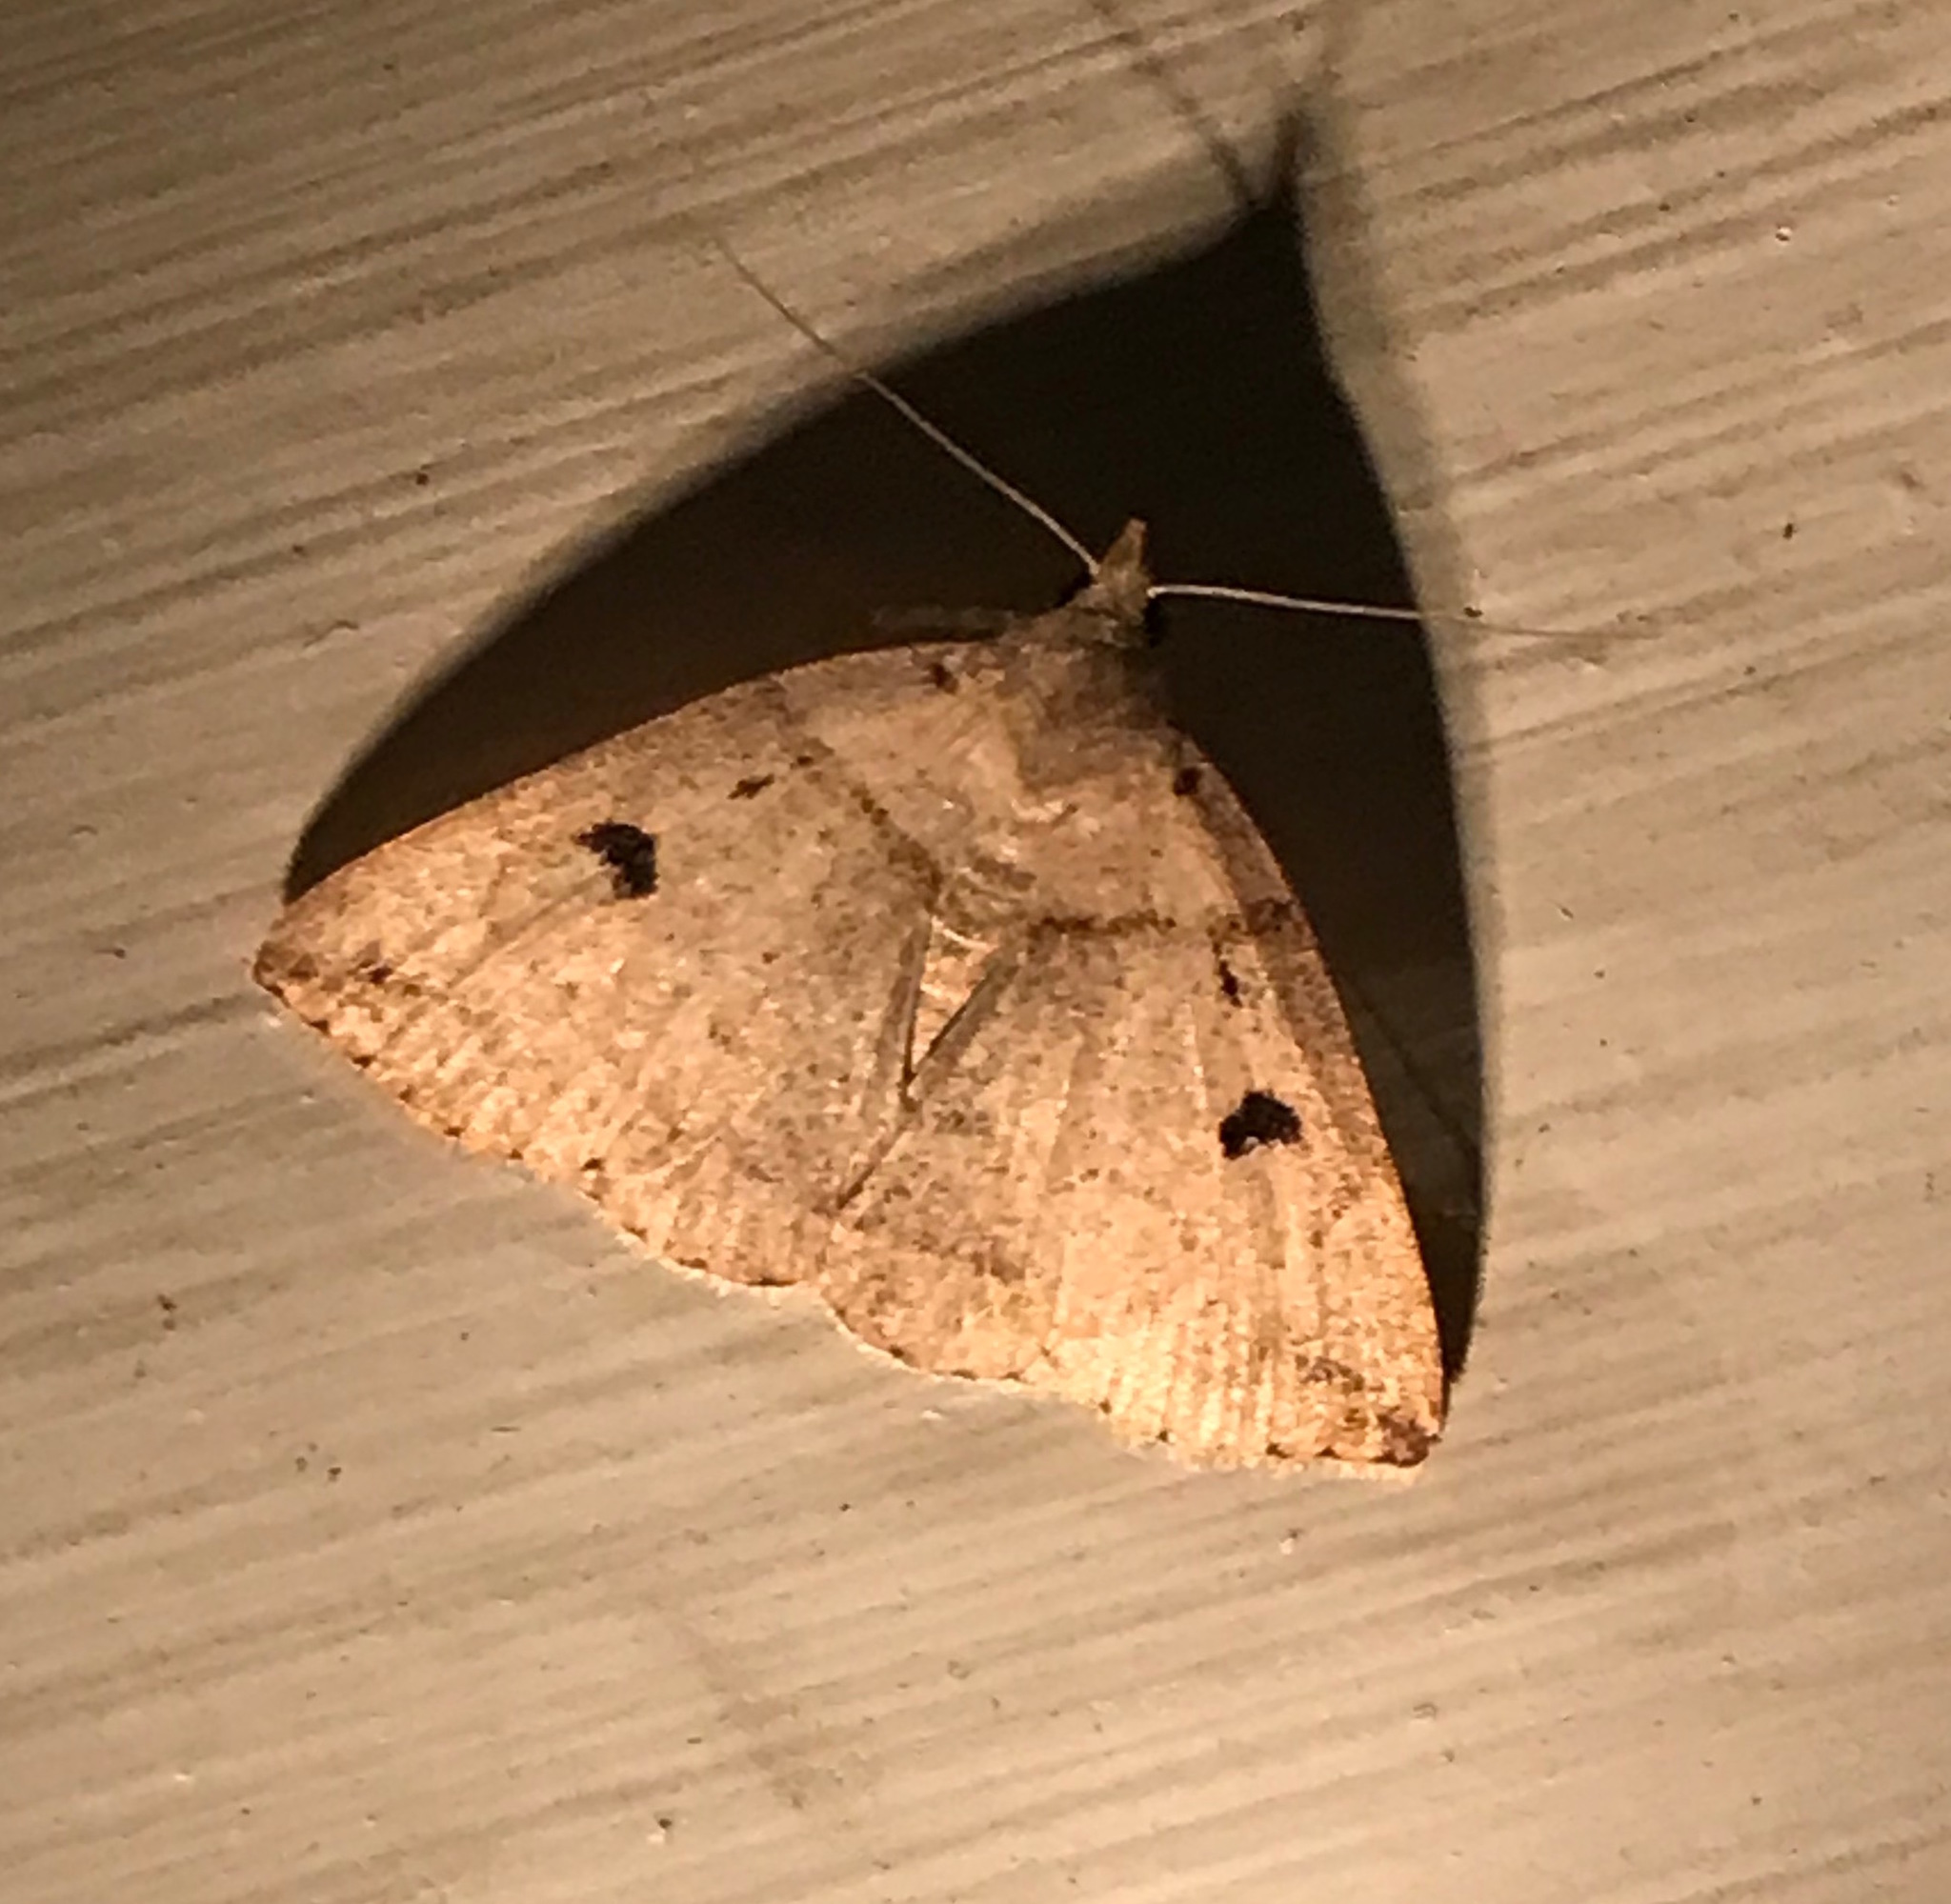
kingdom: Animalia
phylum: Arthropoda
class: Insecta
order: Lepidoptera
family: Erebidae
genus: Zanclognatha
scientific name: Zanclognatha laevigata
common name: Variable fan-foot
